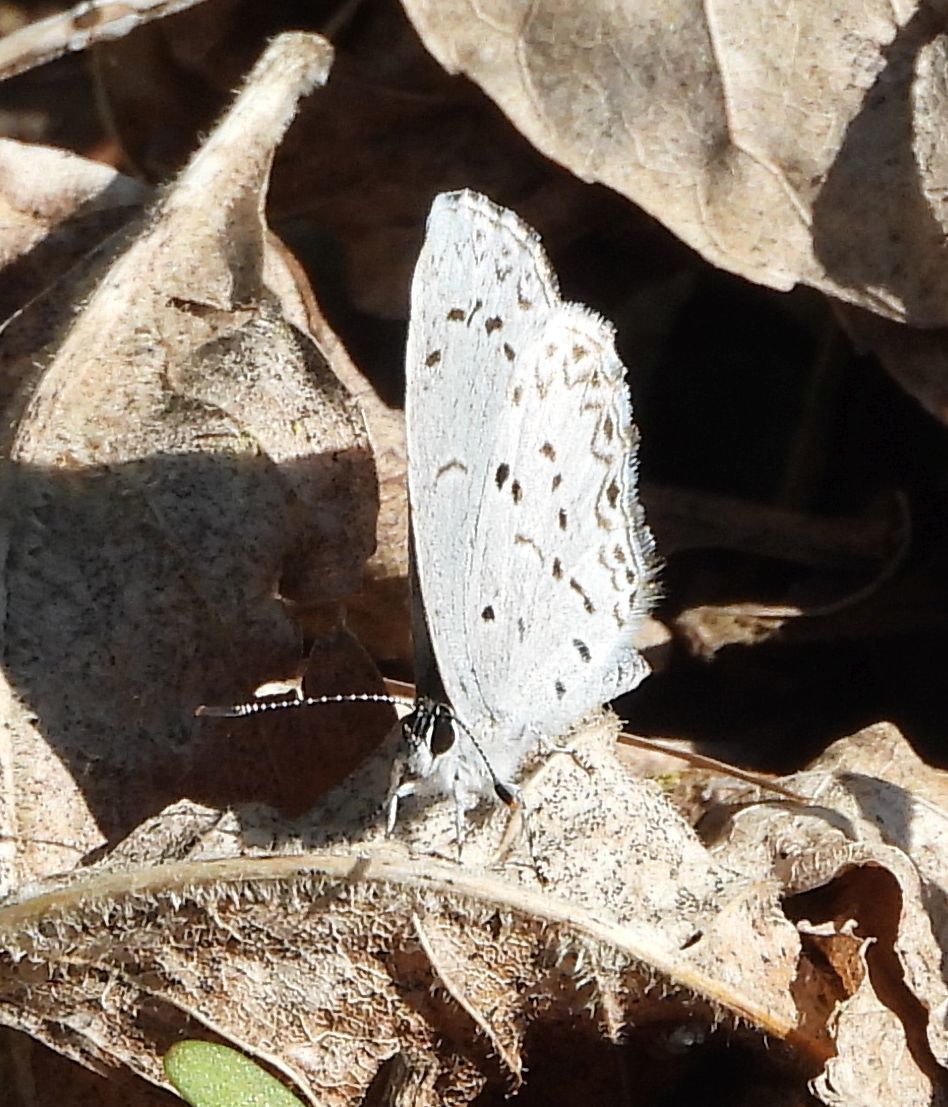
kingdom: Animalia
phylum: Arthropoda
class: Insecta
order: Lepidoptera
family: Lycaenidae
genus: Celastrina
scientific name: Celastrina lucia
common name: Lucia azure
